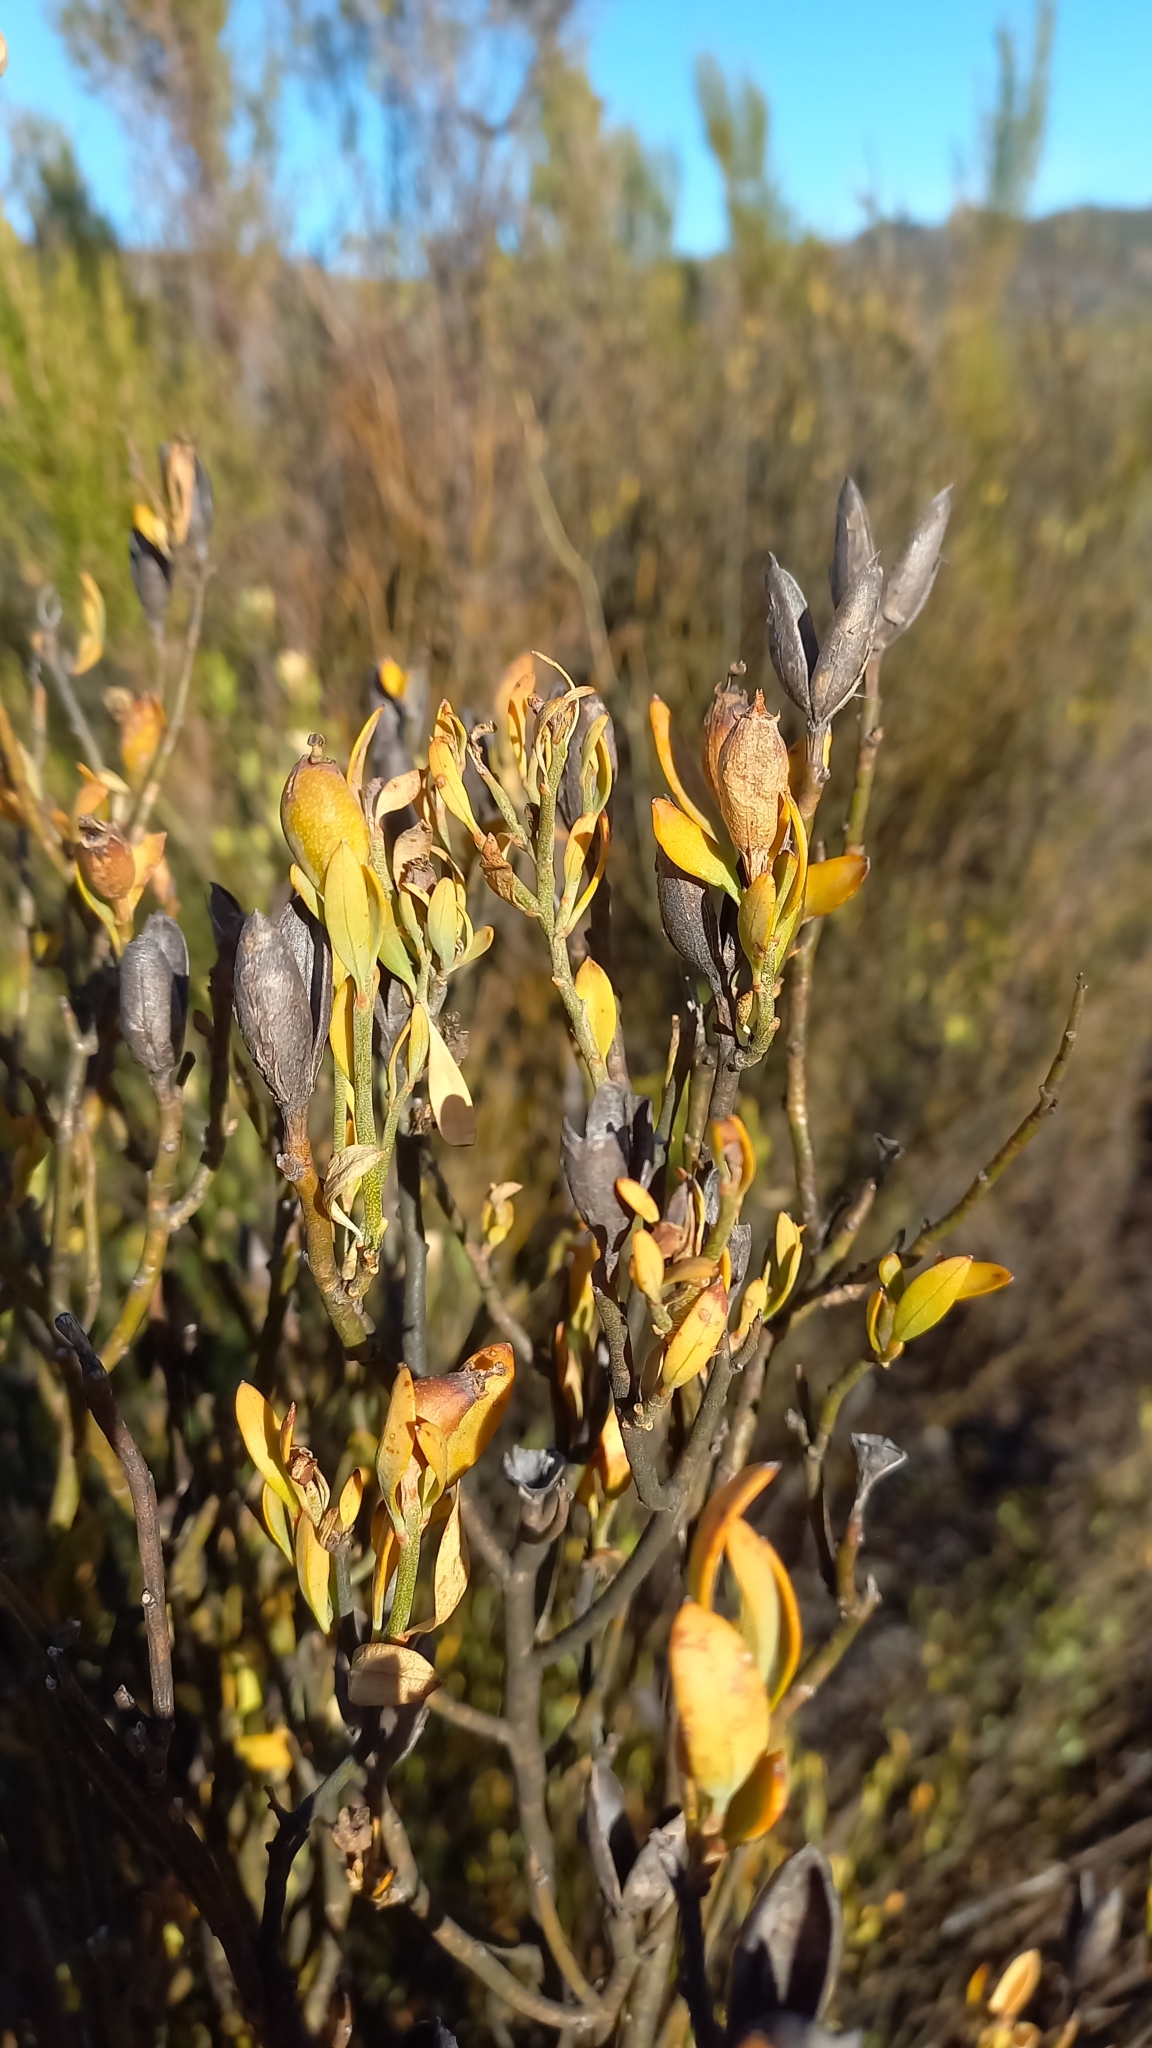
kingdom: Plantae
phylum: Tracheophyta
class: Magnoliopsida
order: Solanales
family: Montiniaceae
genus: Montinia
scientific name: Montinia caryophyllacea
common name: Wild clove-bush
